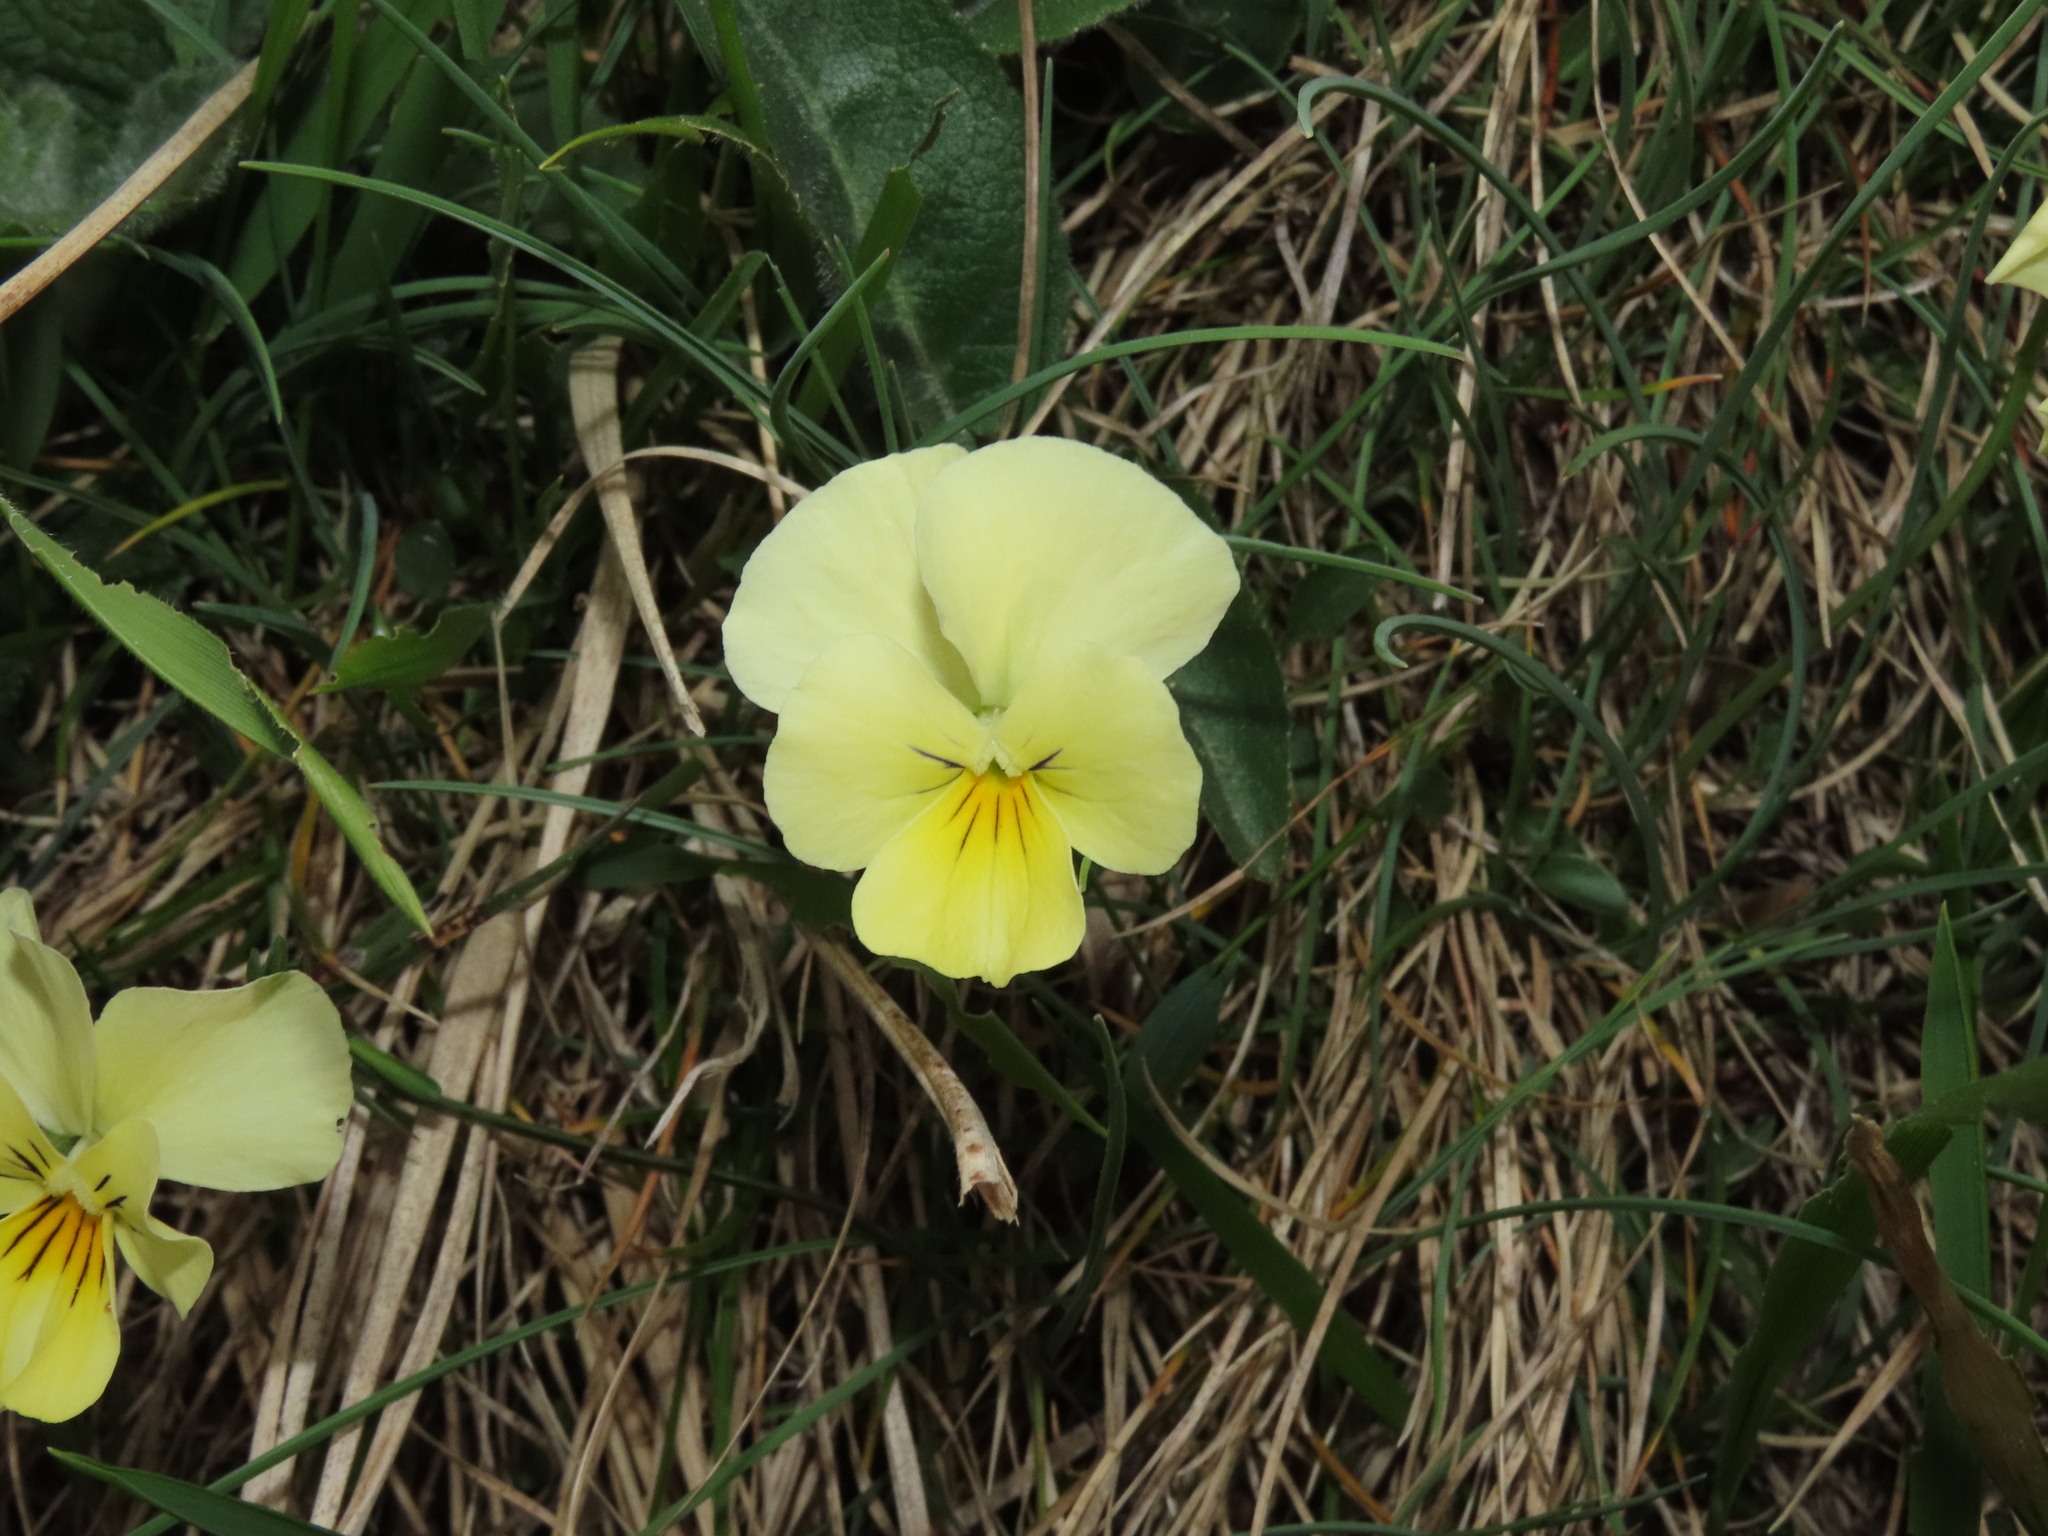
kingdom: Plantae
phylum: Tracheophyta
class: Magnoliopsida
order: Malpighiales
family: Violaceae
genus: Viola
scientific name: Viola eugeniae
